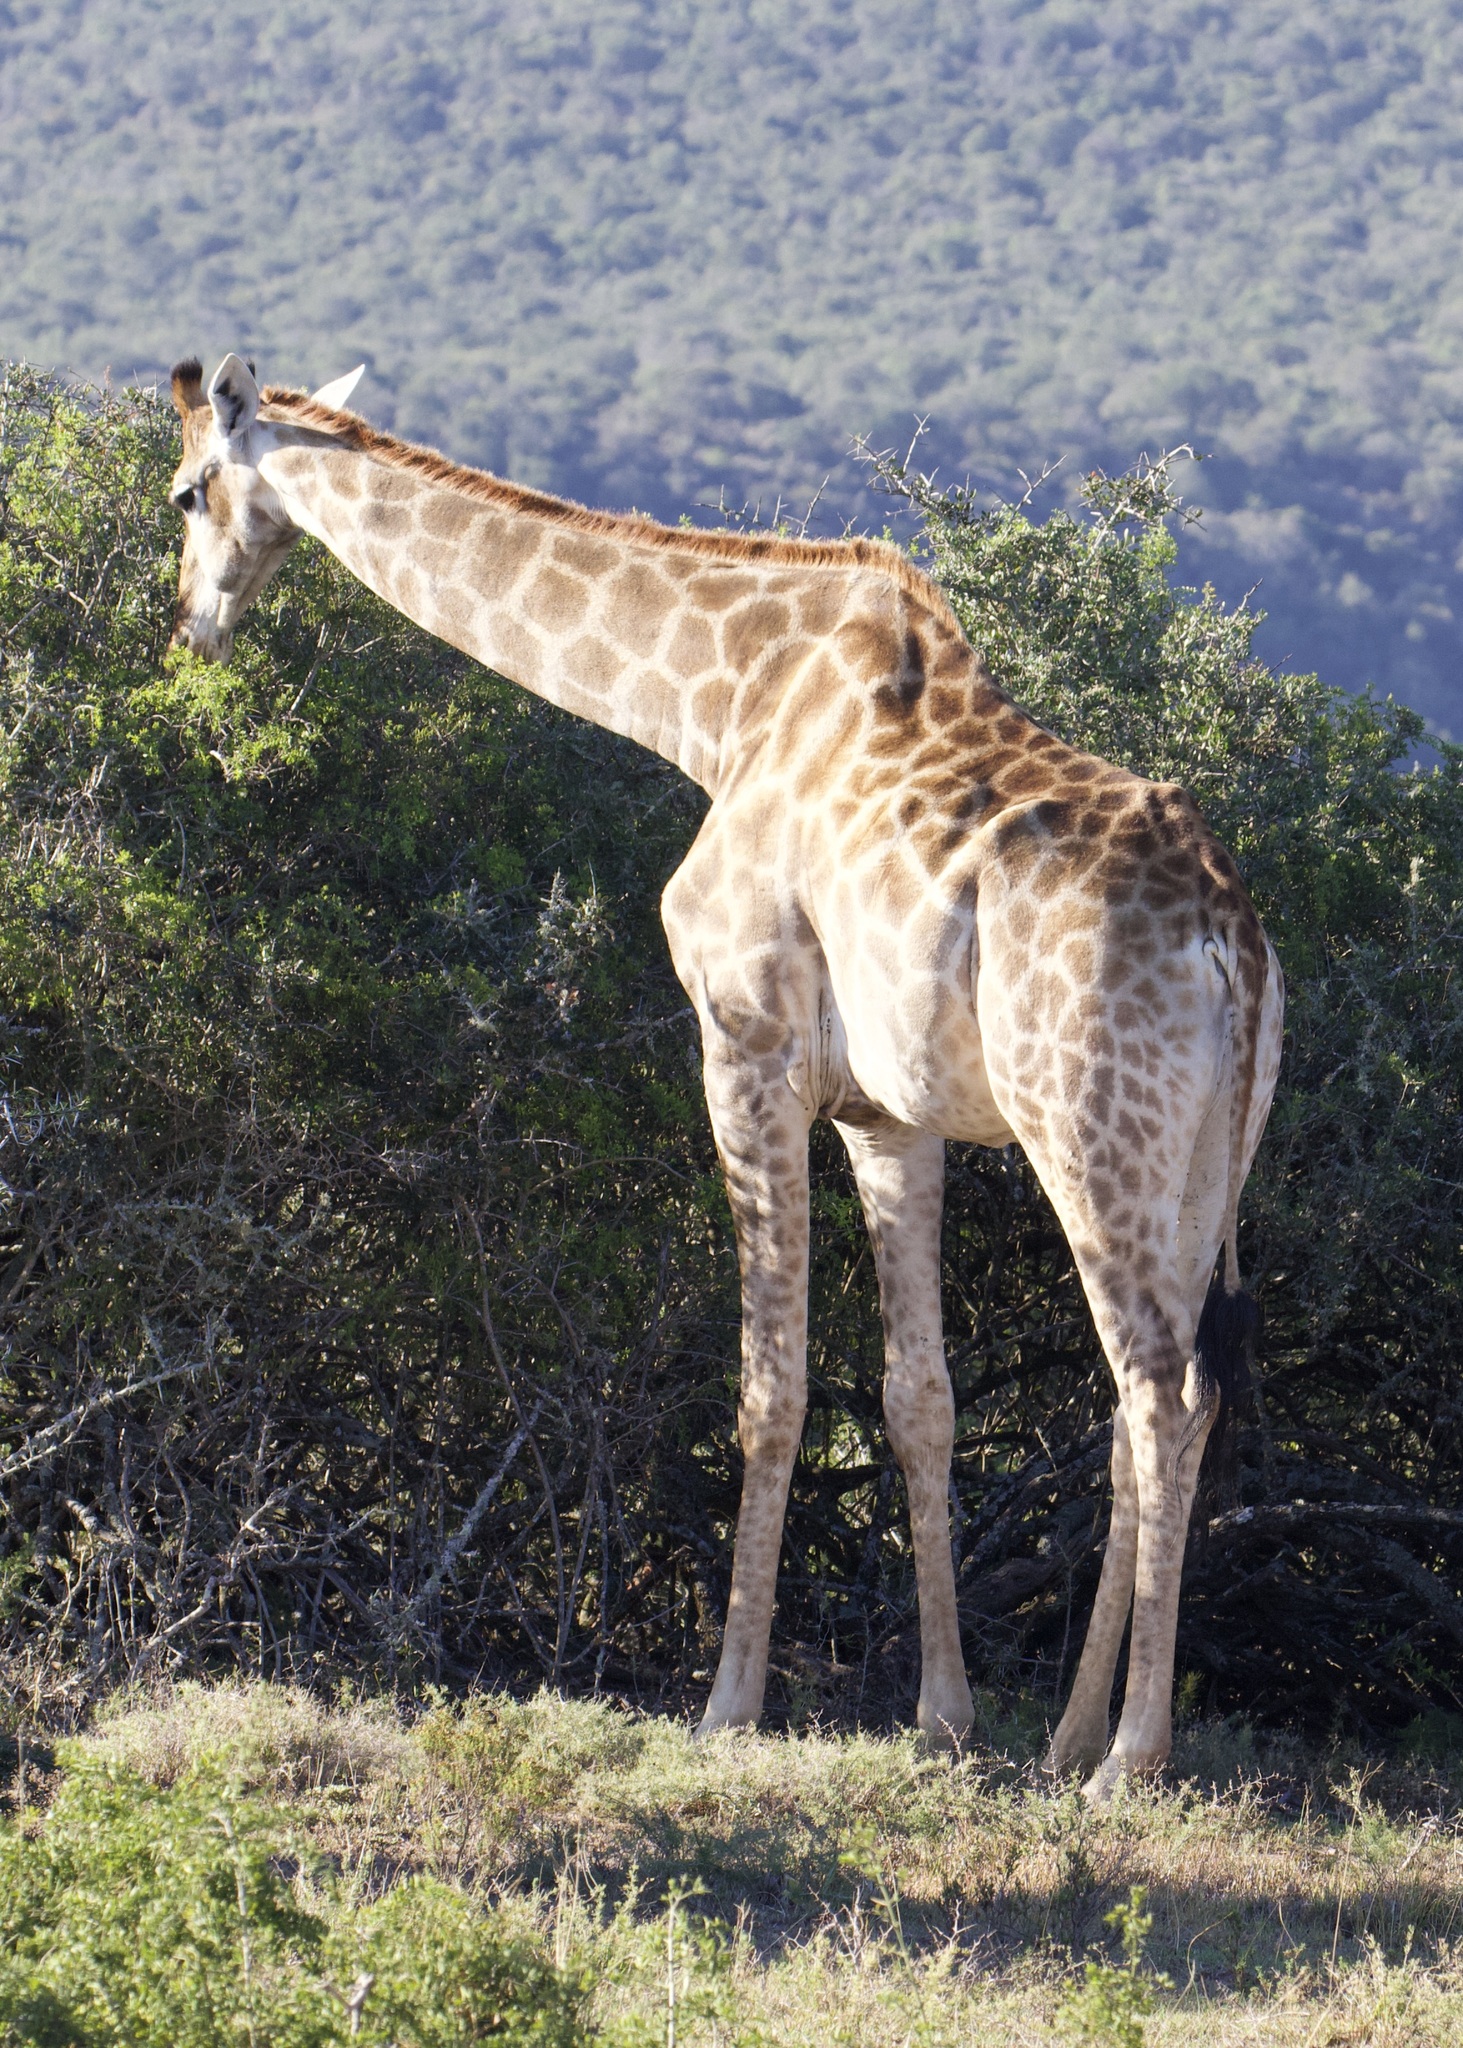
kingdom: Animalia
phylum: Chordata
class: Mammalia
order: Artiodactyla
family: Giraffidae
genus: Giraffa
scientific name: Giraffa giraffa
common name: Southern giraffe
